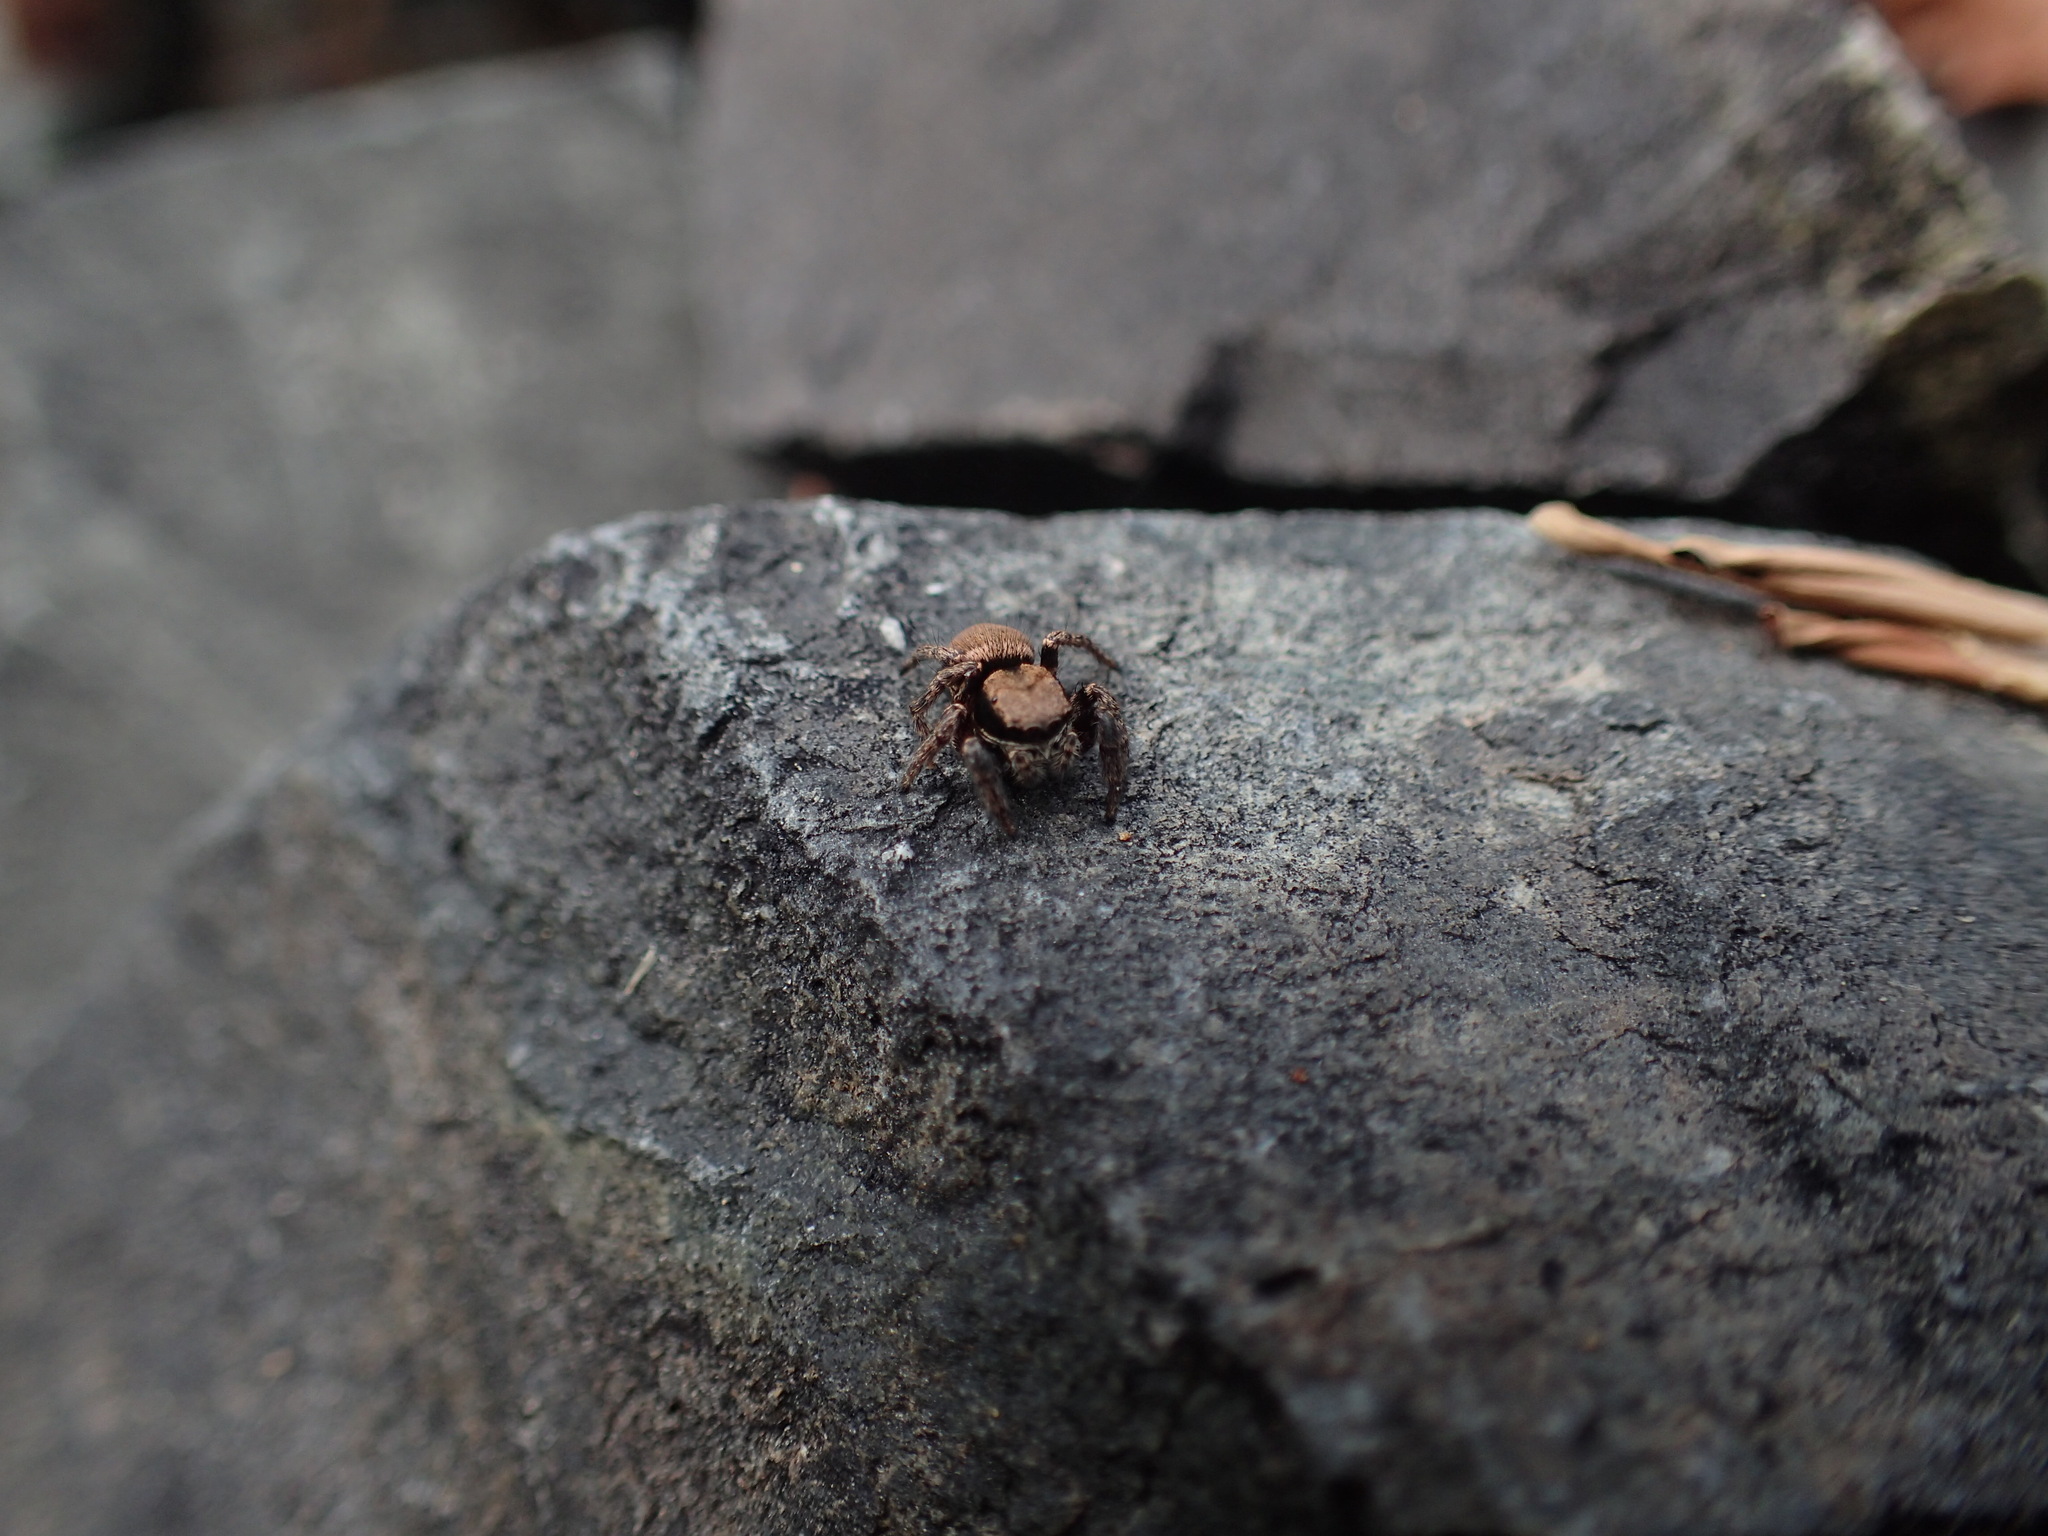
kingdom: Animalia
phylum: Arthropoda
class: Arachnida
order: Araneae
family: Salticidae
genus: Habronattus
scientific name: Habronattus oregonensis
